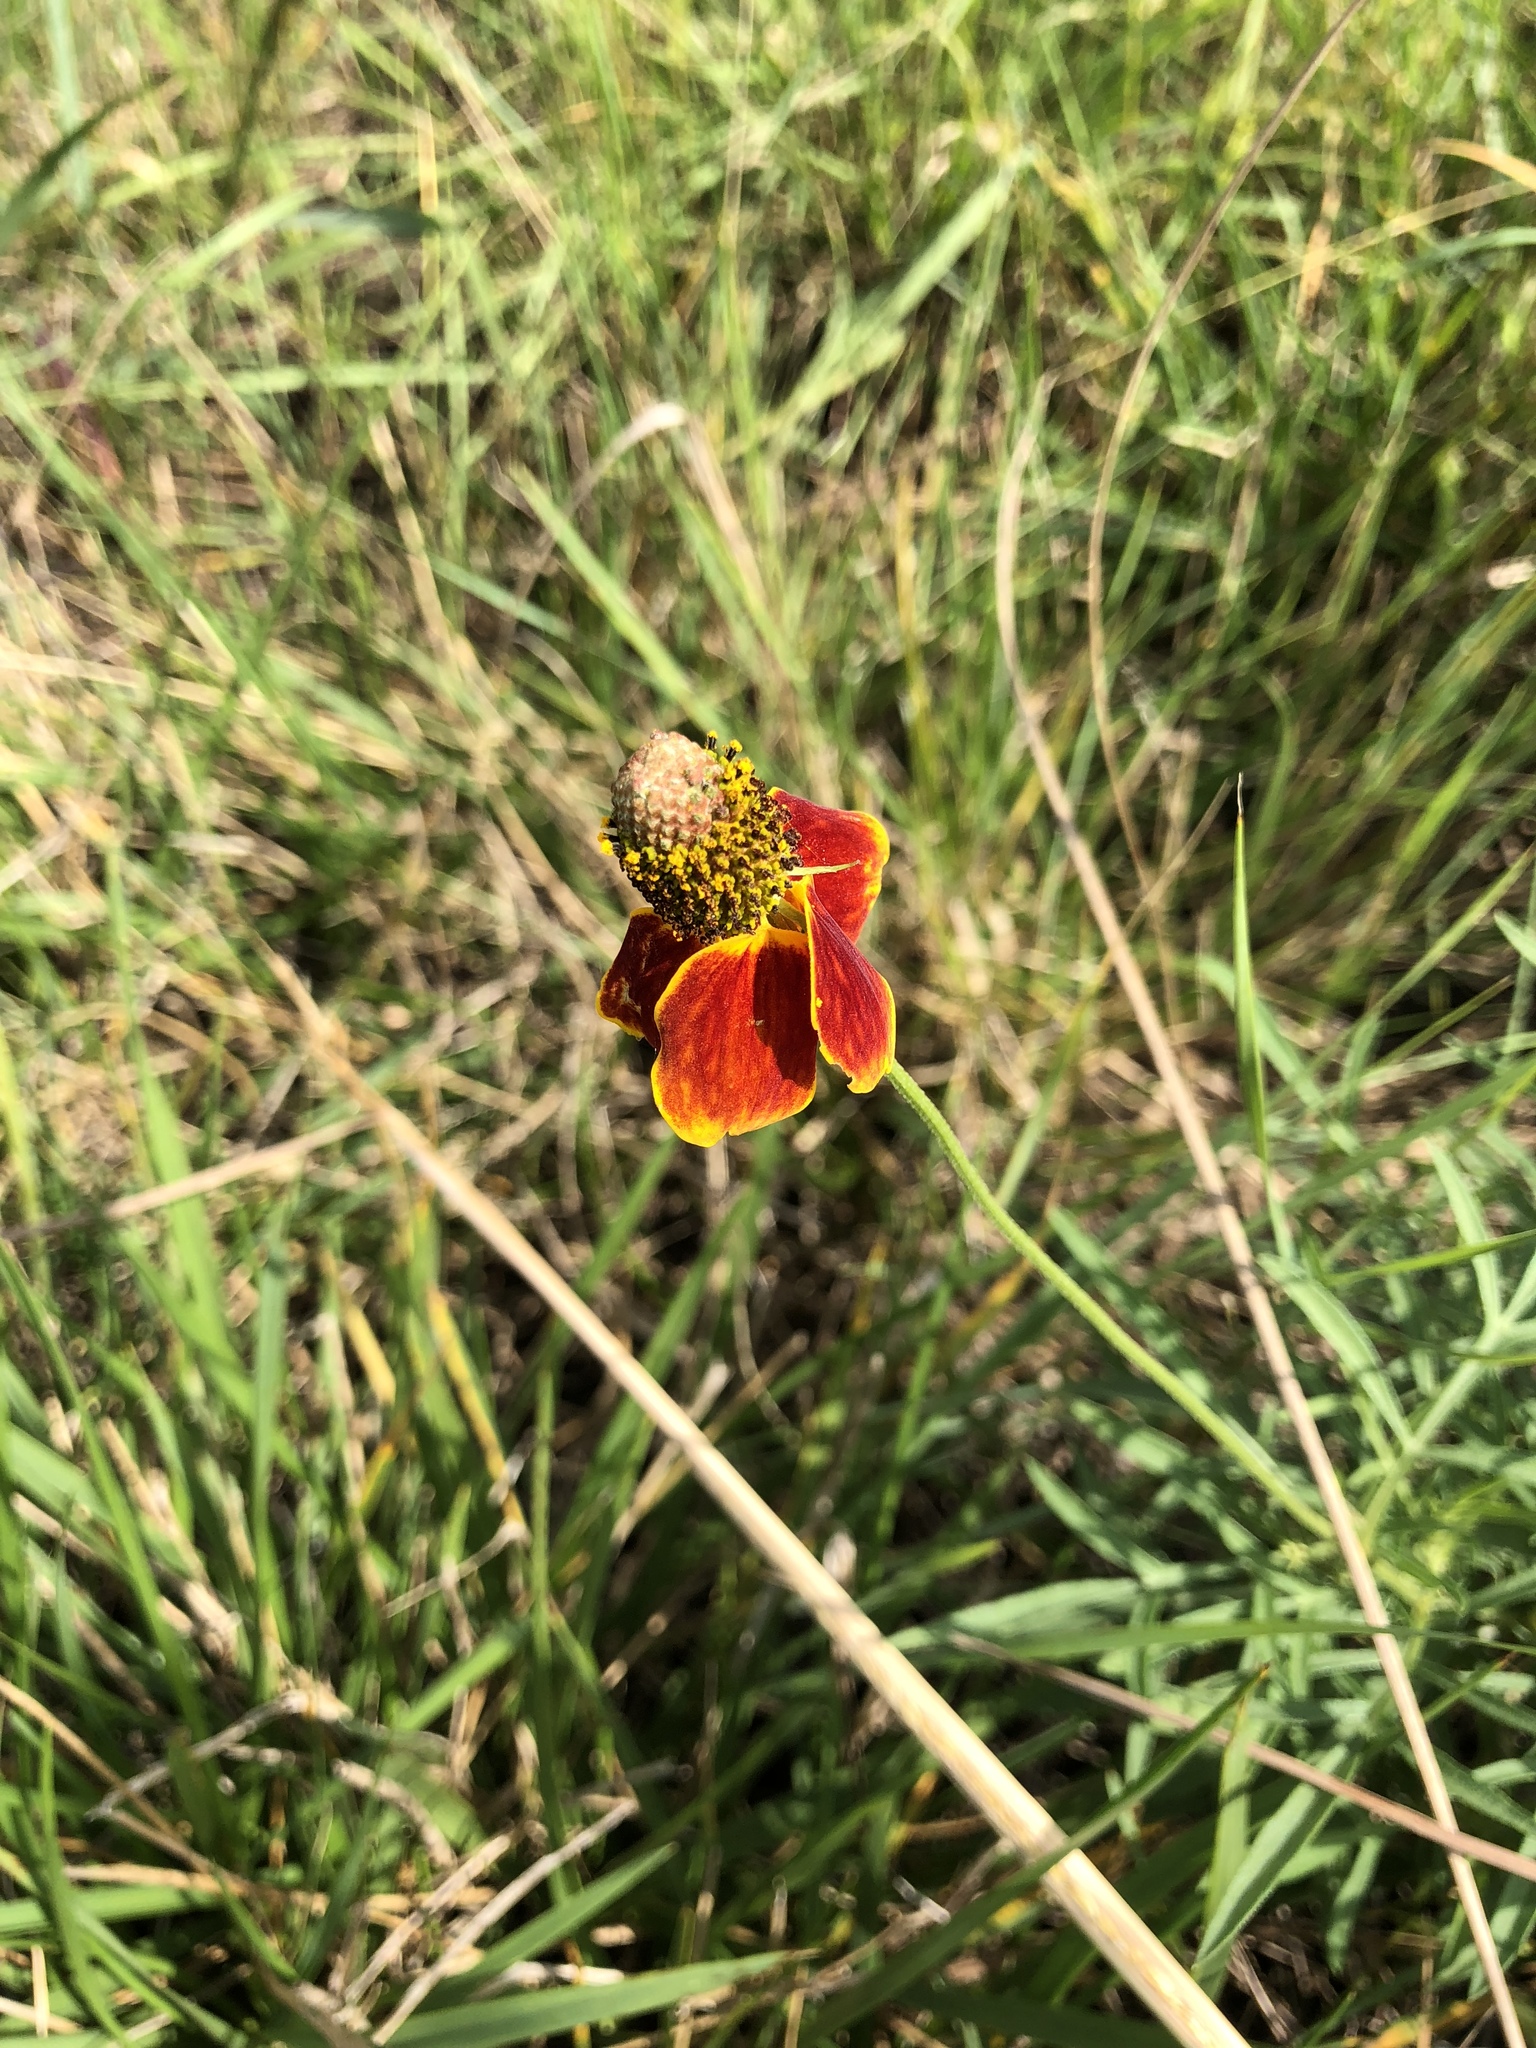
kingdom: Plantae
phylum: Tracheophyta
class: Magnoliopsida
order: Asterales
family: Asteraceae
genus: Ratibida
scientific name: Ratibida columnifera
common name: Prairie coneflower
